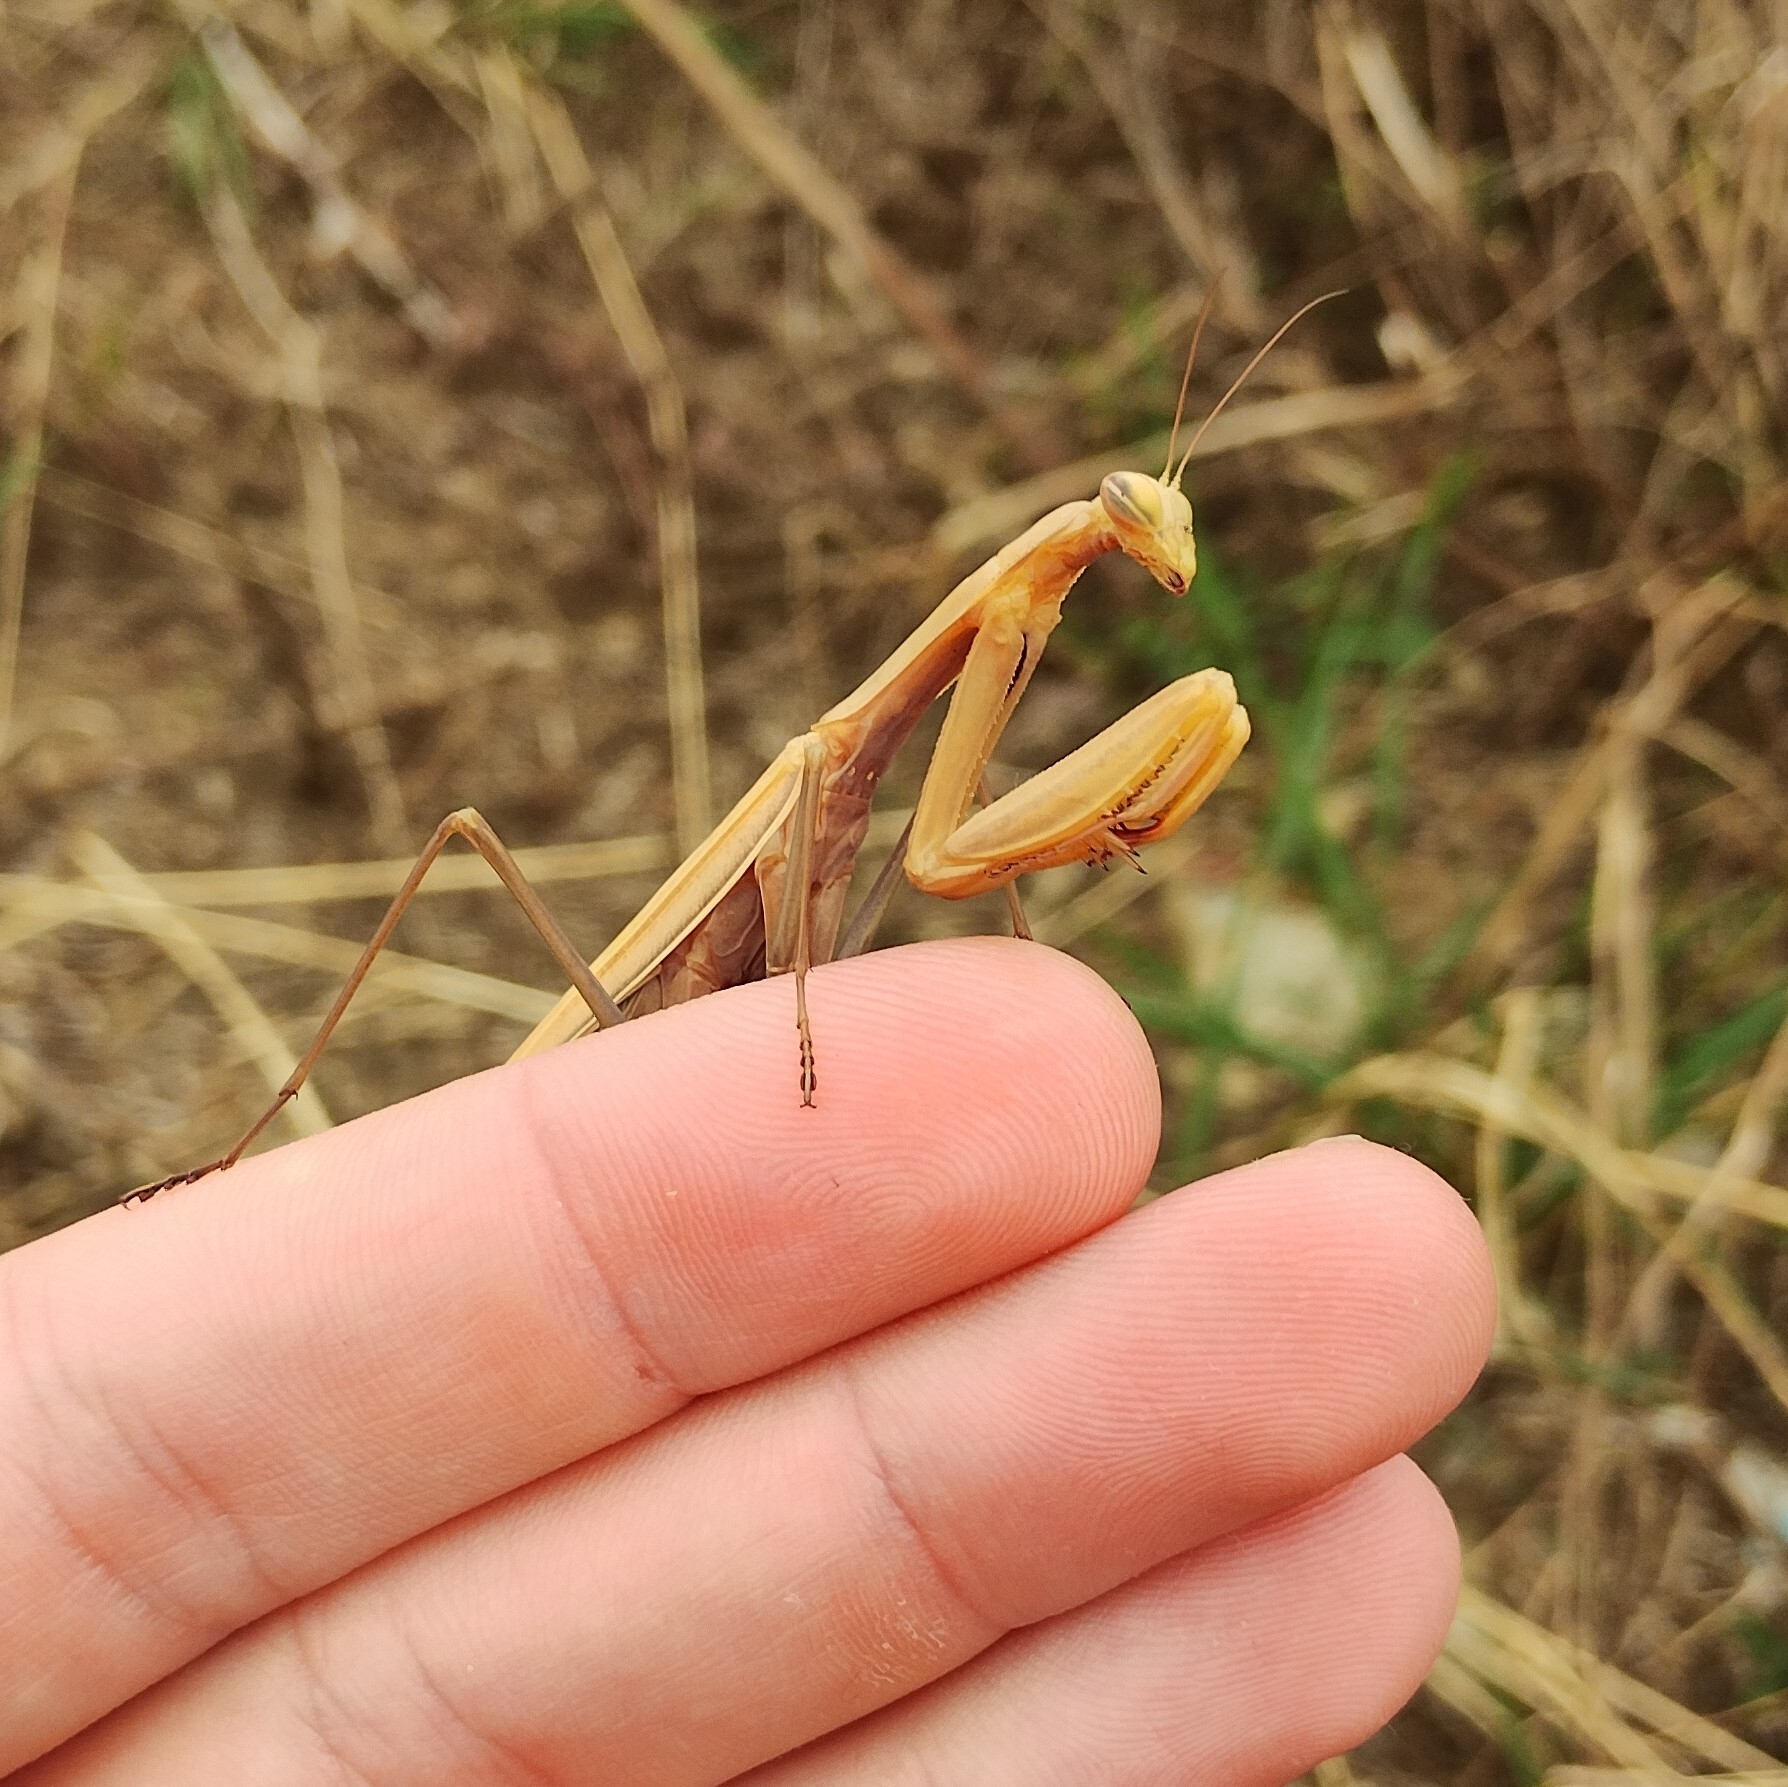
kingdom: Animalia
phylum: Arthropoda
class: Insecta
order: Mantodea
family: Mantidae
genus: Mantis
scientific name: Mantis religiosa
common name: Praying mantis
